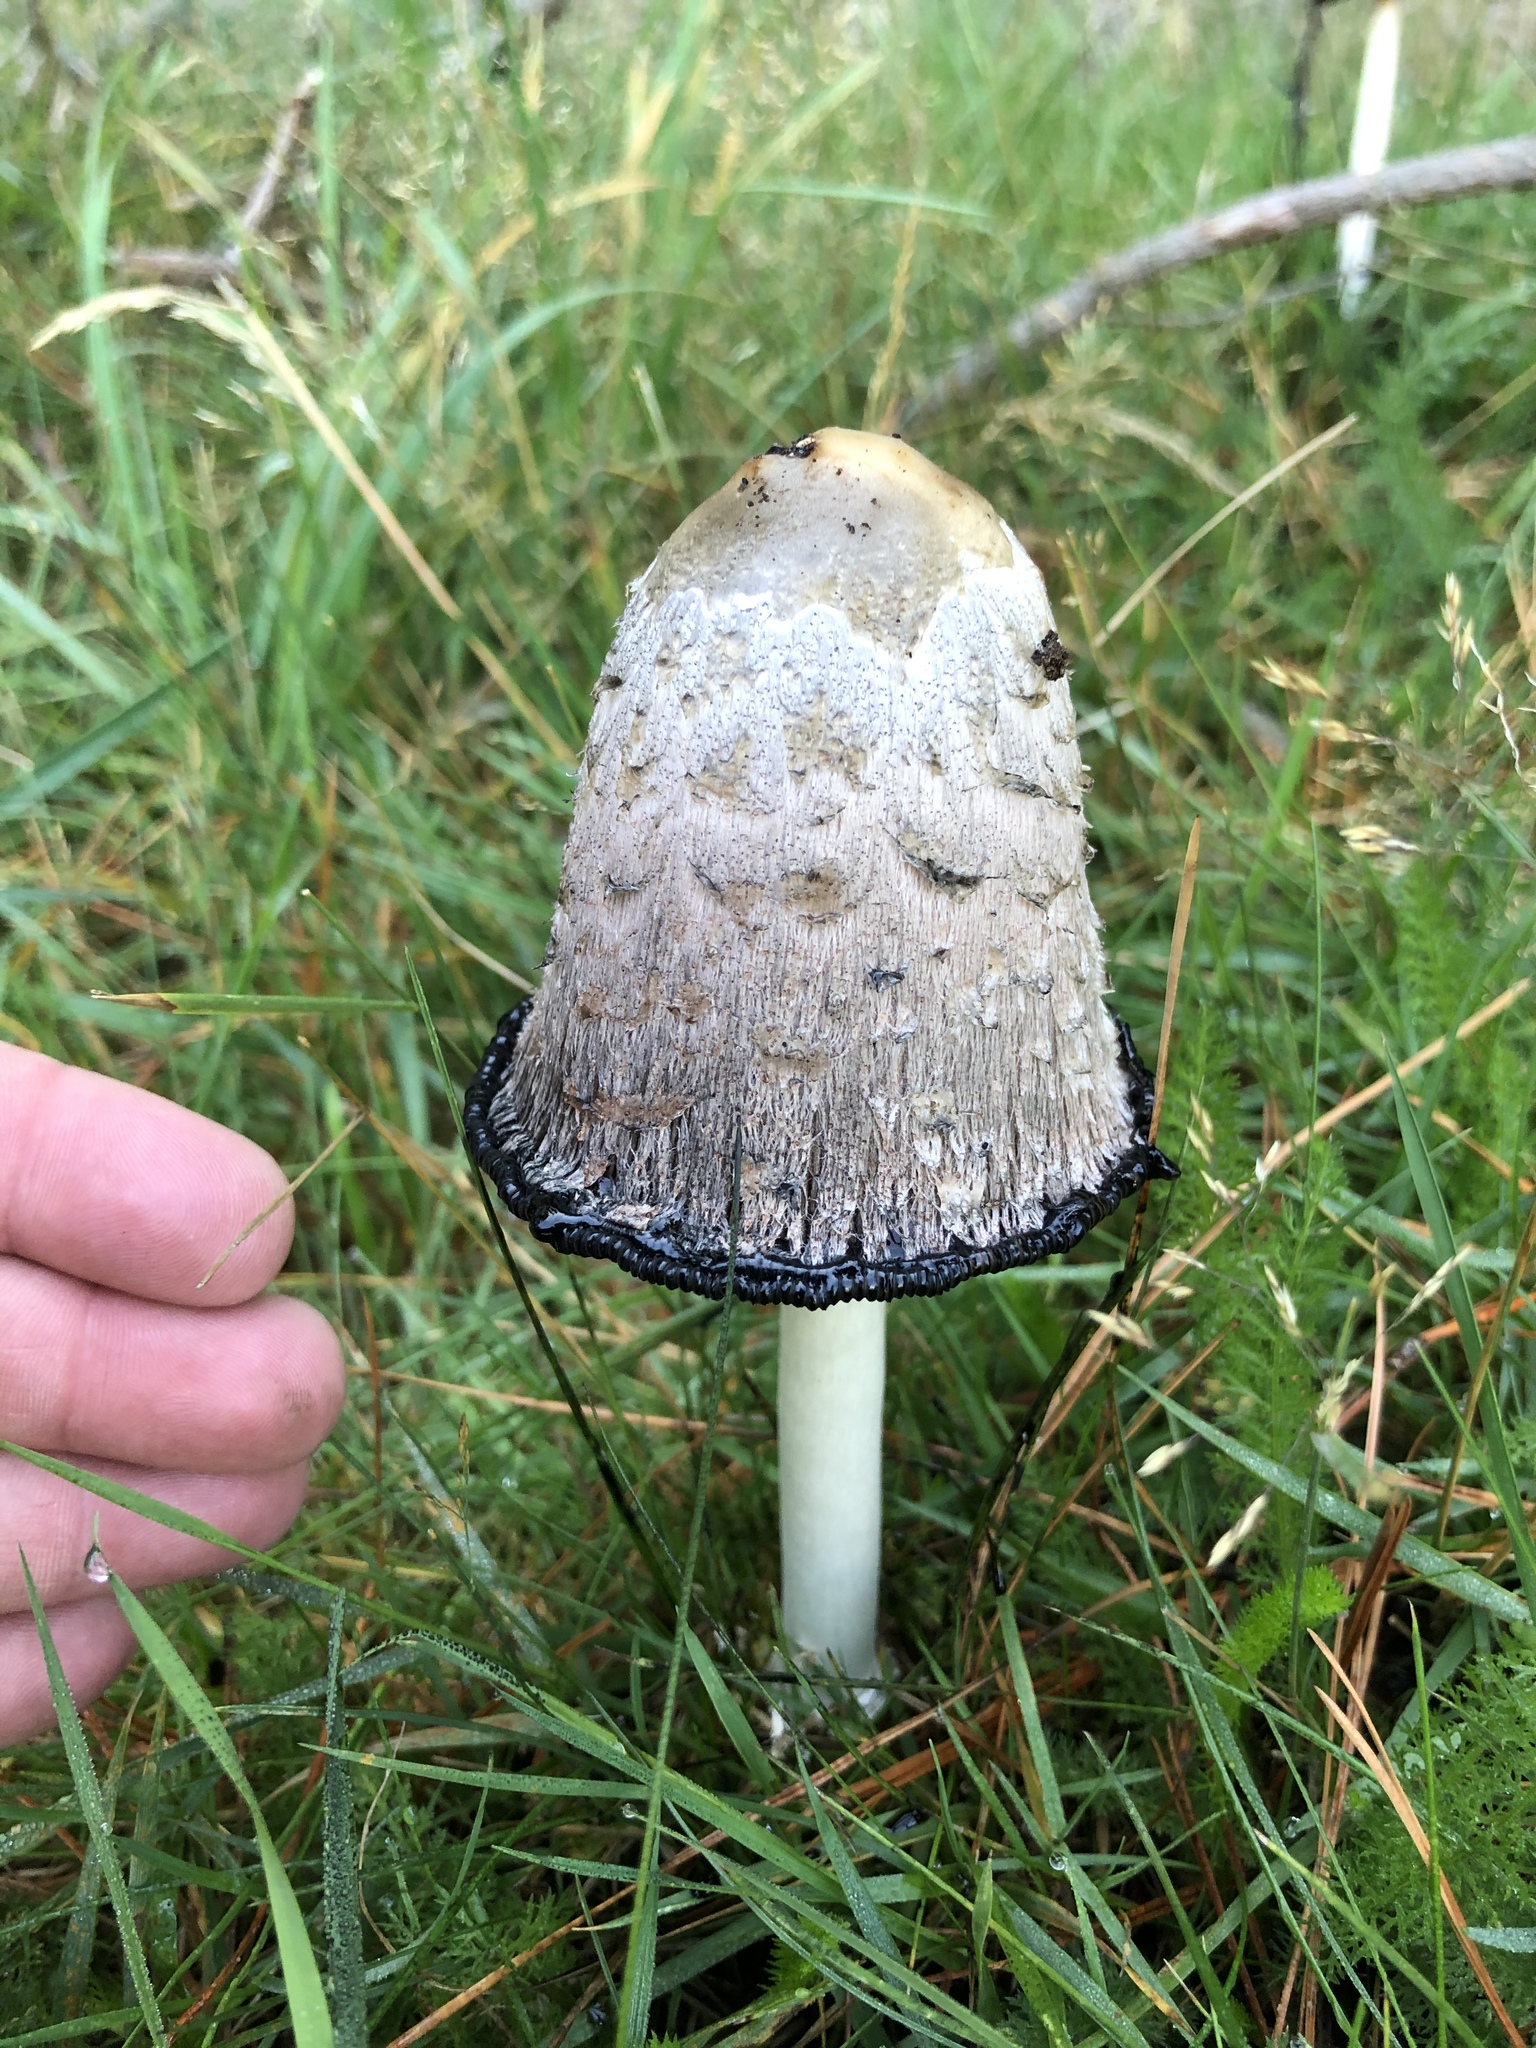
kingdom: Fungi
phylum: Basidiomycota
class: Agaricomycetes
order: Agaricales
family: Agaricaceae
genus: Coprinus
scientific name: Coprinus comatus
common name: Lawyer's wig
